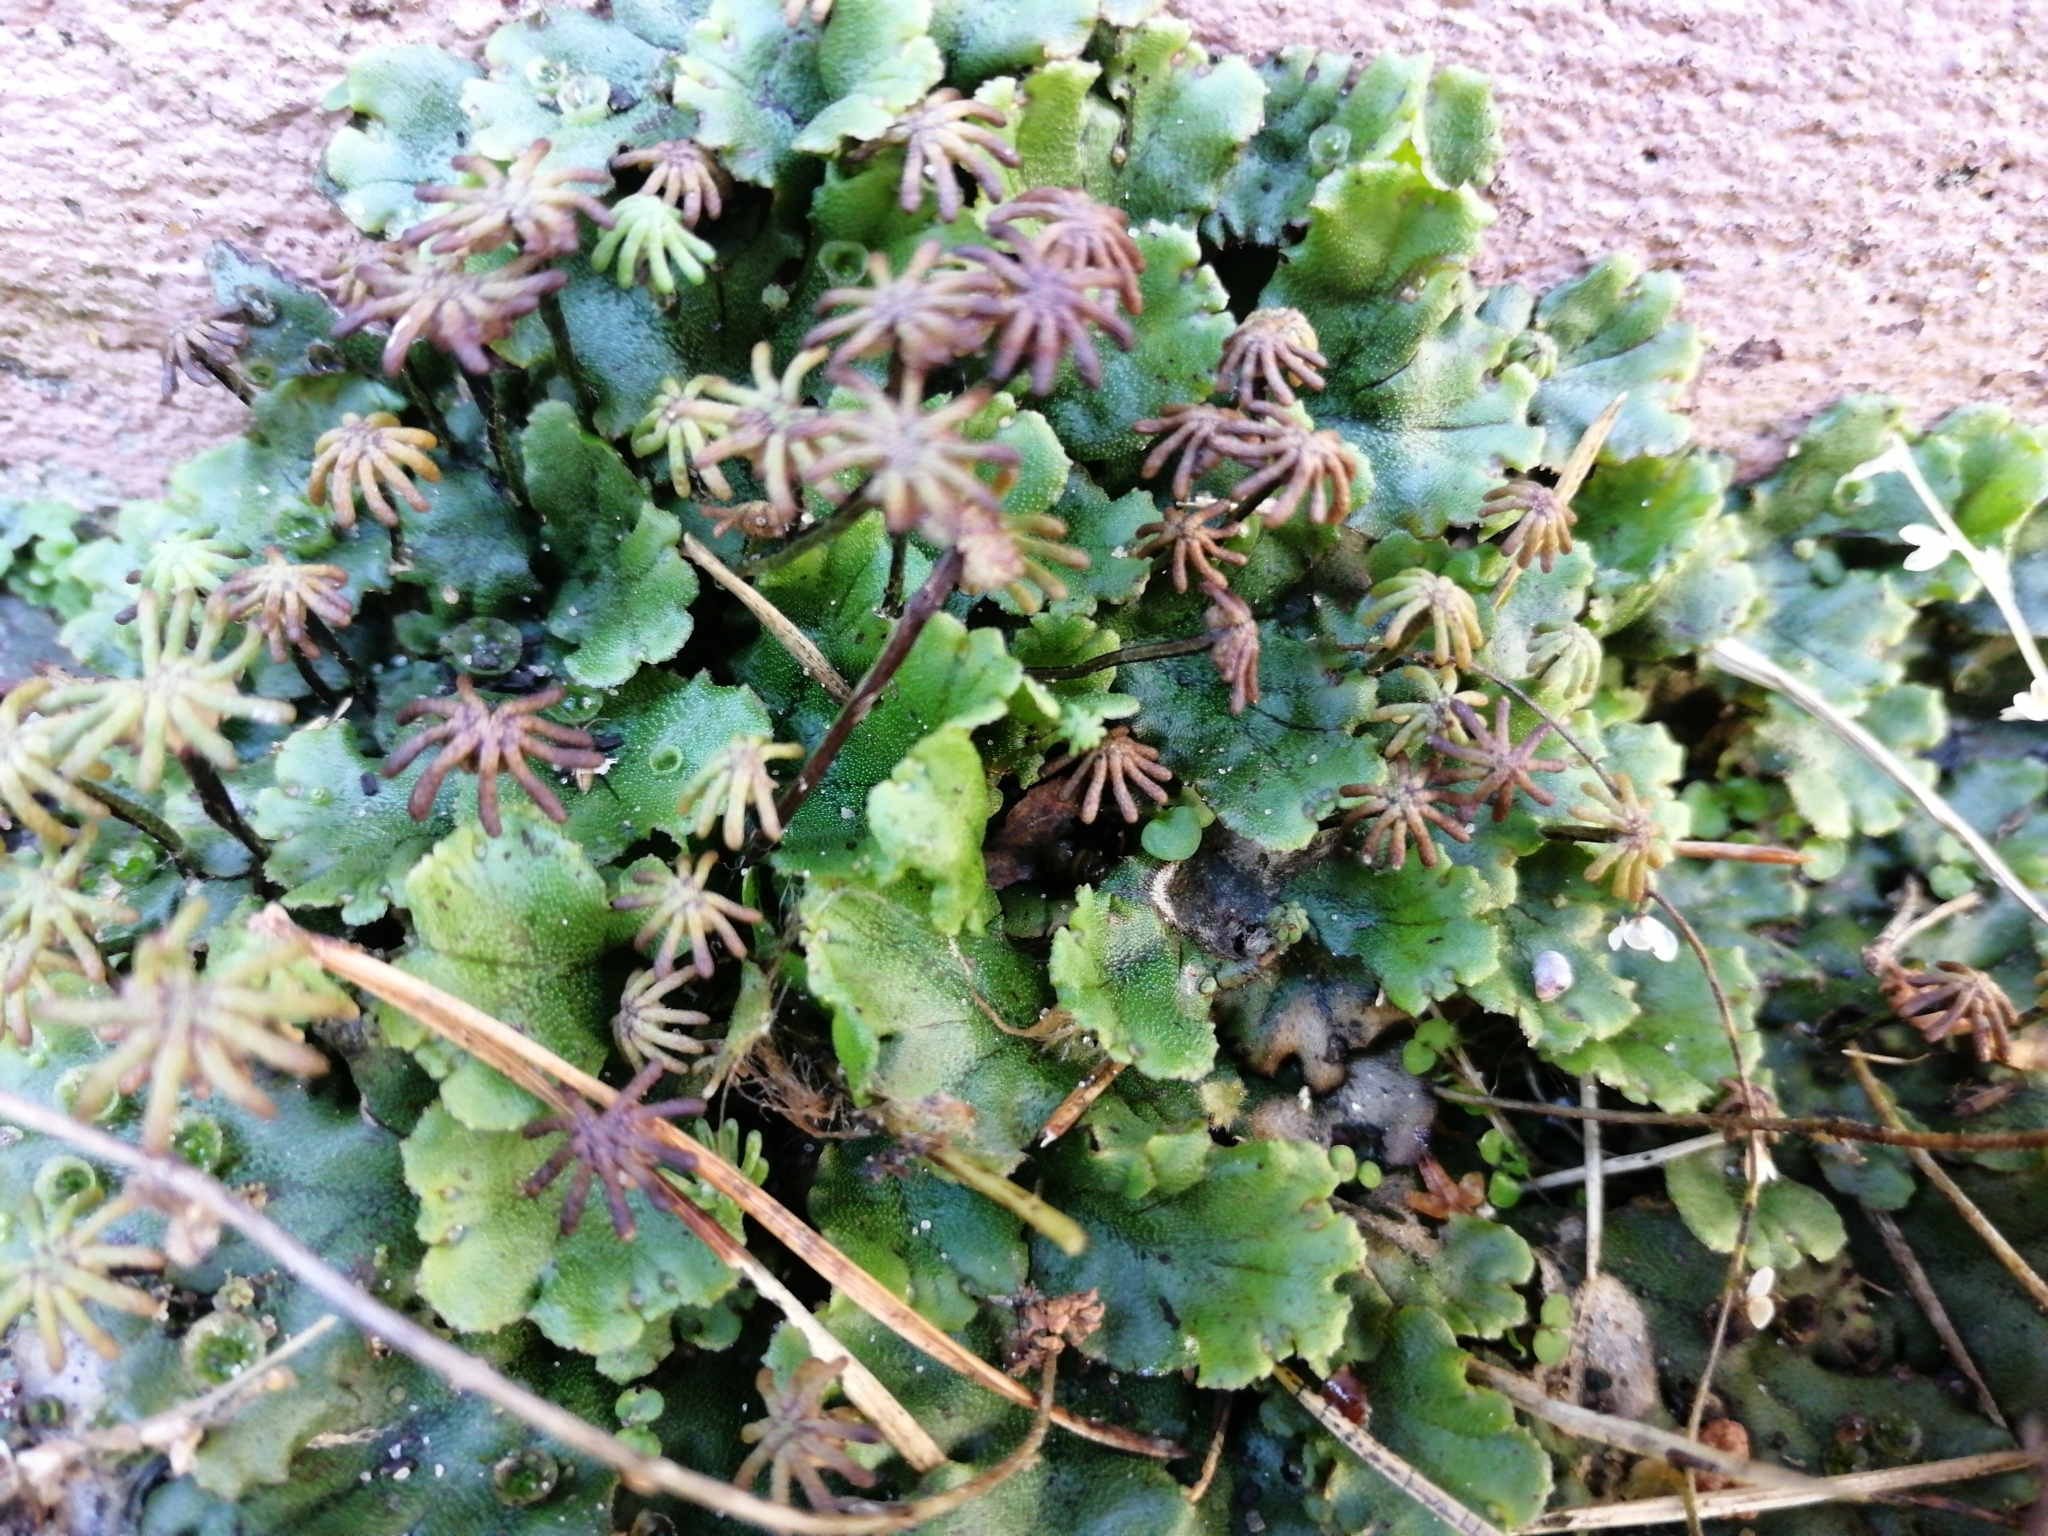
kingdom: Plantae
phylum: Marchantiophyta
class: Marchantiopsida
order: Marchantiales
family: Marchantiaceae
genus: Marchantia
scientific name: Marchantia polymorpha
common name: Common liverwort
